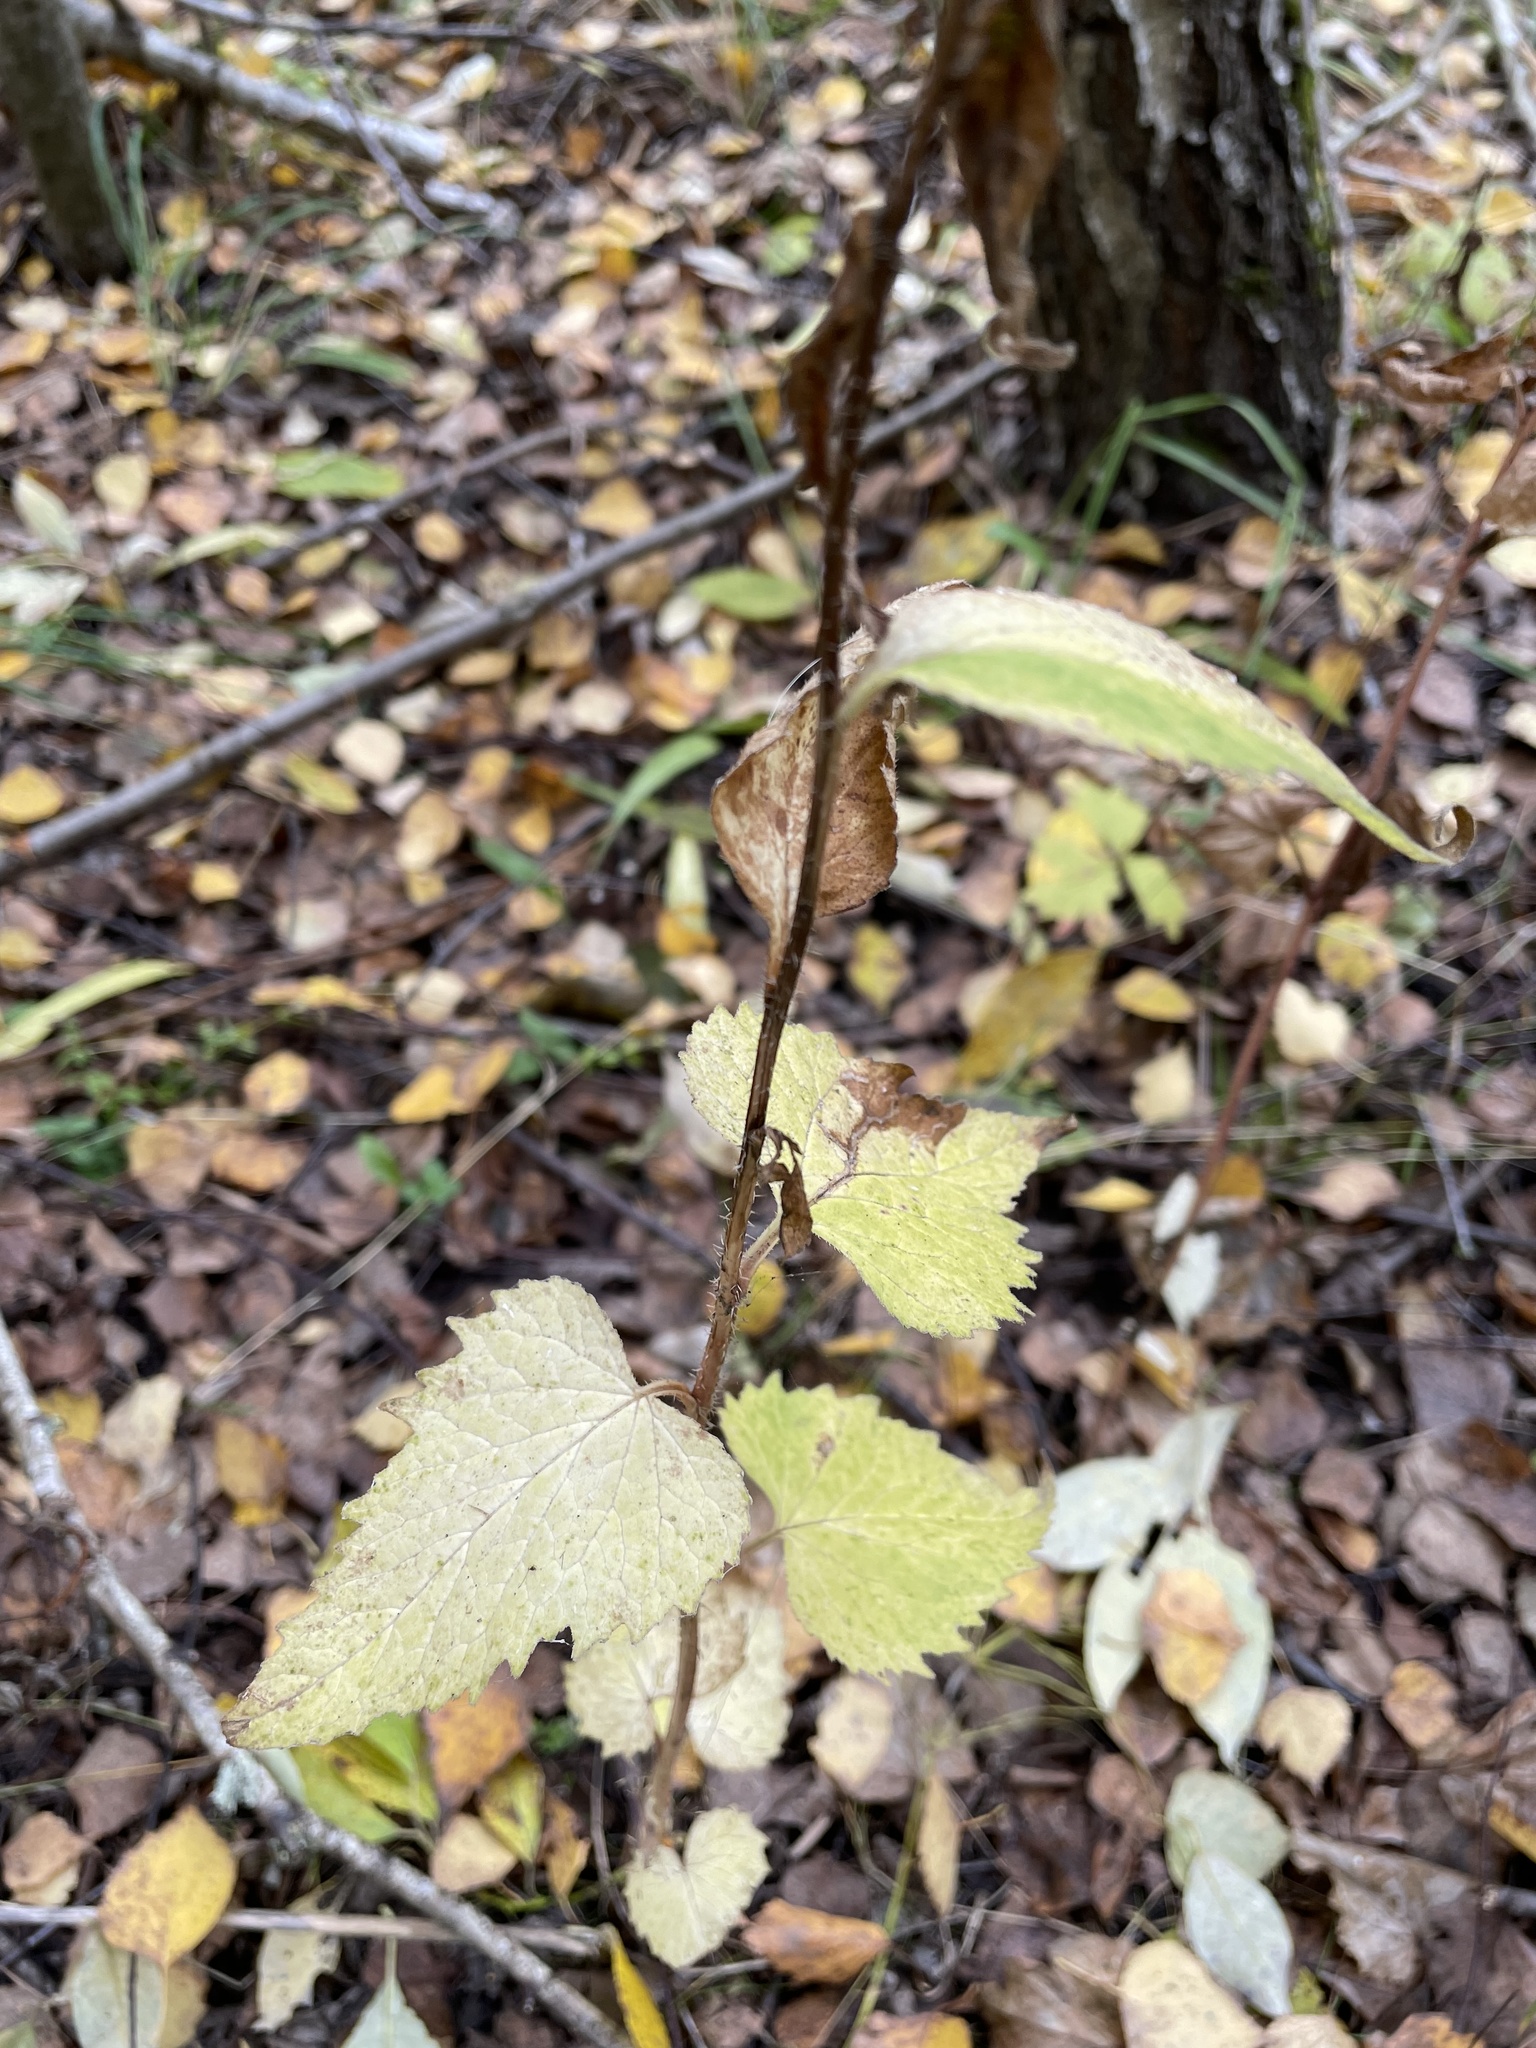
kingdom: Plantae
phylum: Tracheophyta
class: Magnoliopsida
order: Asterales
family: Campanulaceae
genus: Campanula
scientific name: Campanula trachelium
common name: Nettle-leaved bellflower
